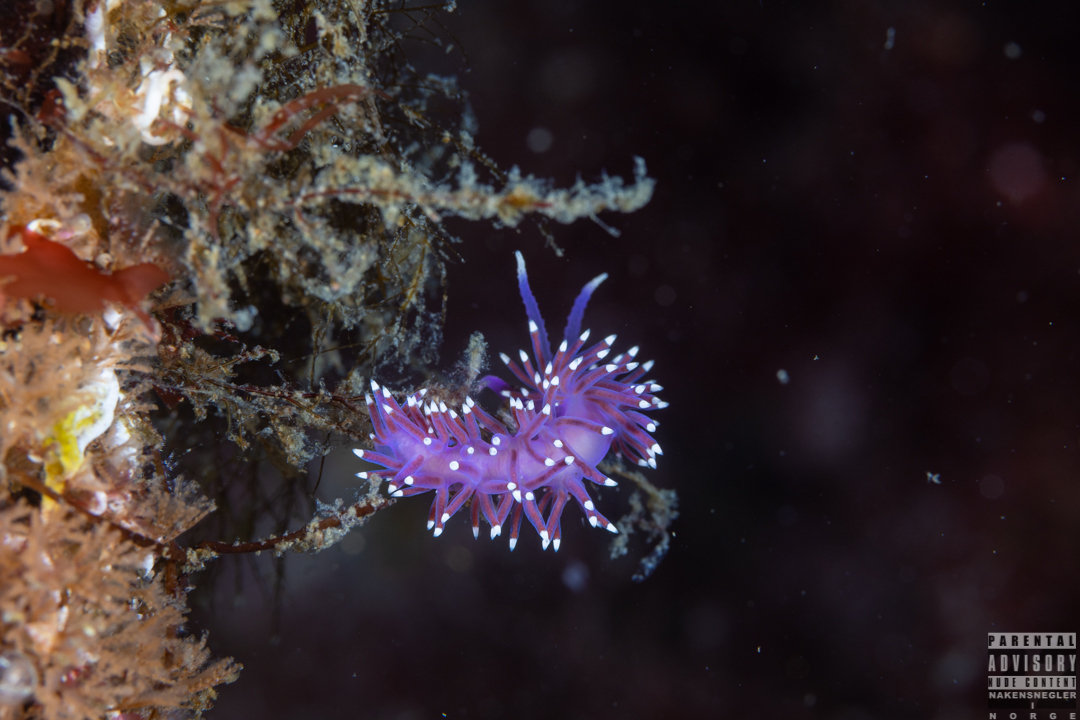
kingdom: Animalia
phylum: Mollusca
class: Gastropoda
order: Nudibranchia
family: Flabellinidae
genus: Edmundsella
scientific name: Edmundsella pedata
